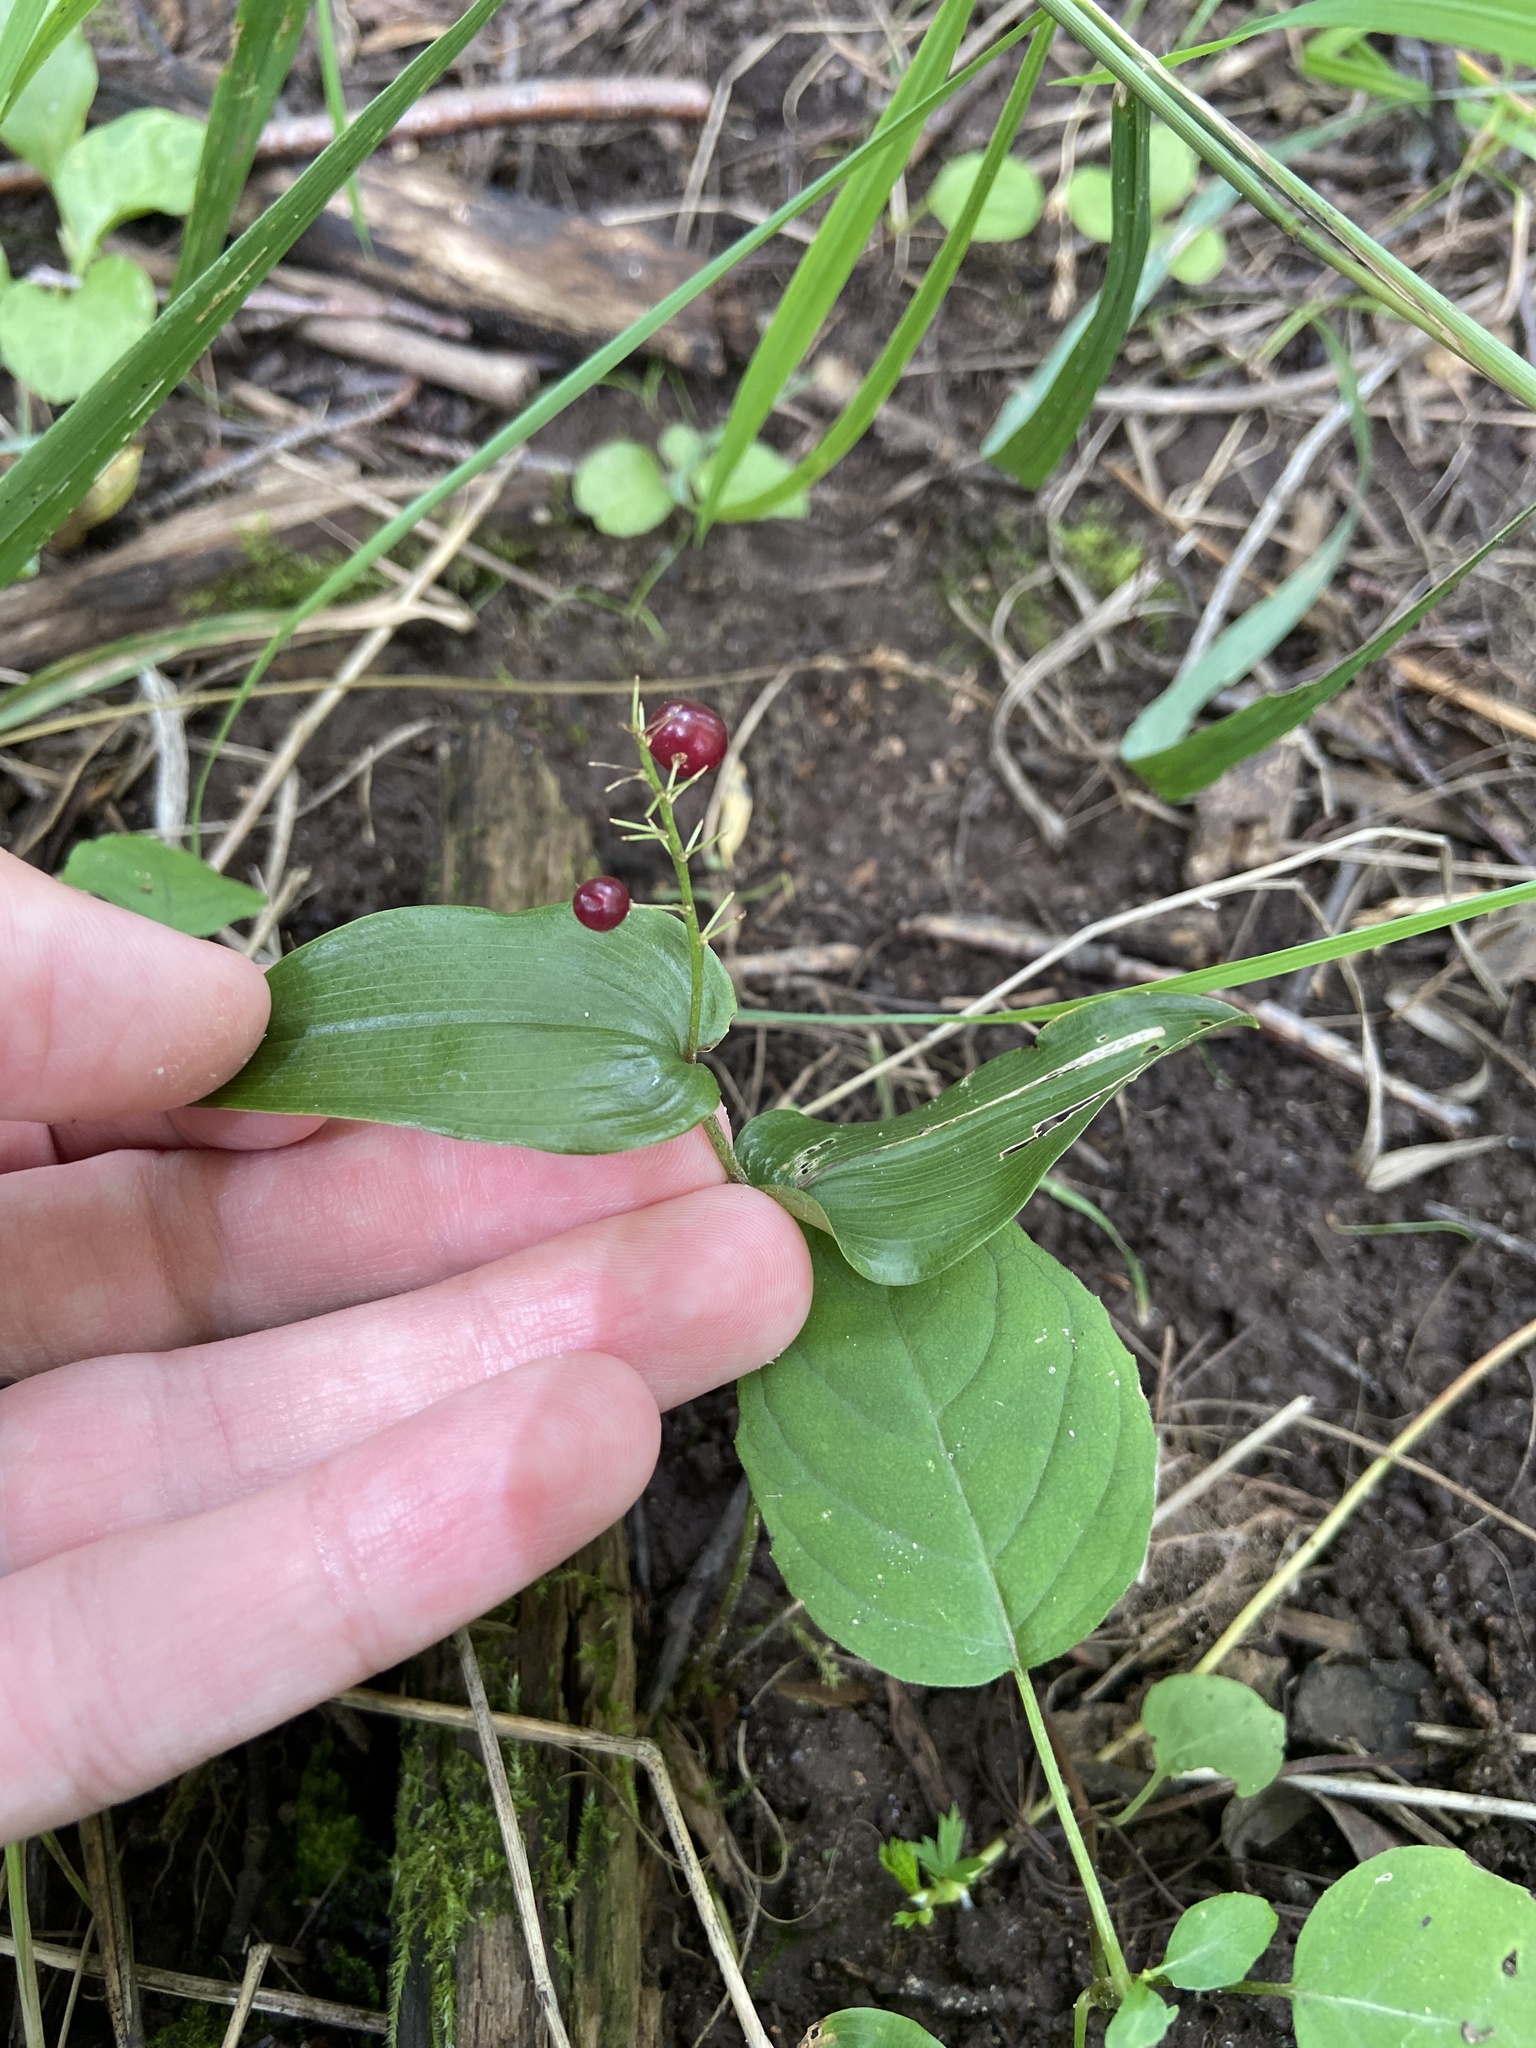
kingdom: Plantae
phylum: Tracheophyta
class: Liliopsida
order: Asparagales
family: Asparagaceae
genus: Maianthemum
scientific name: Maianthemum canadense
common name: False lily-of-the-valley
